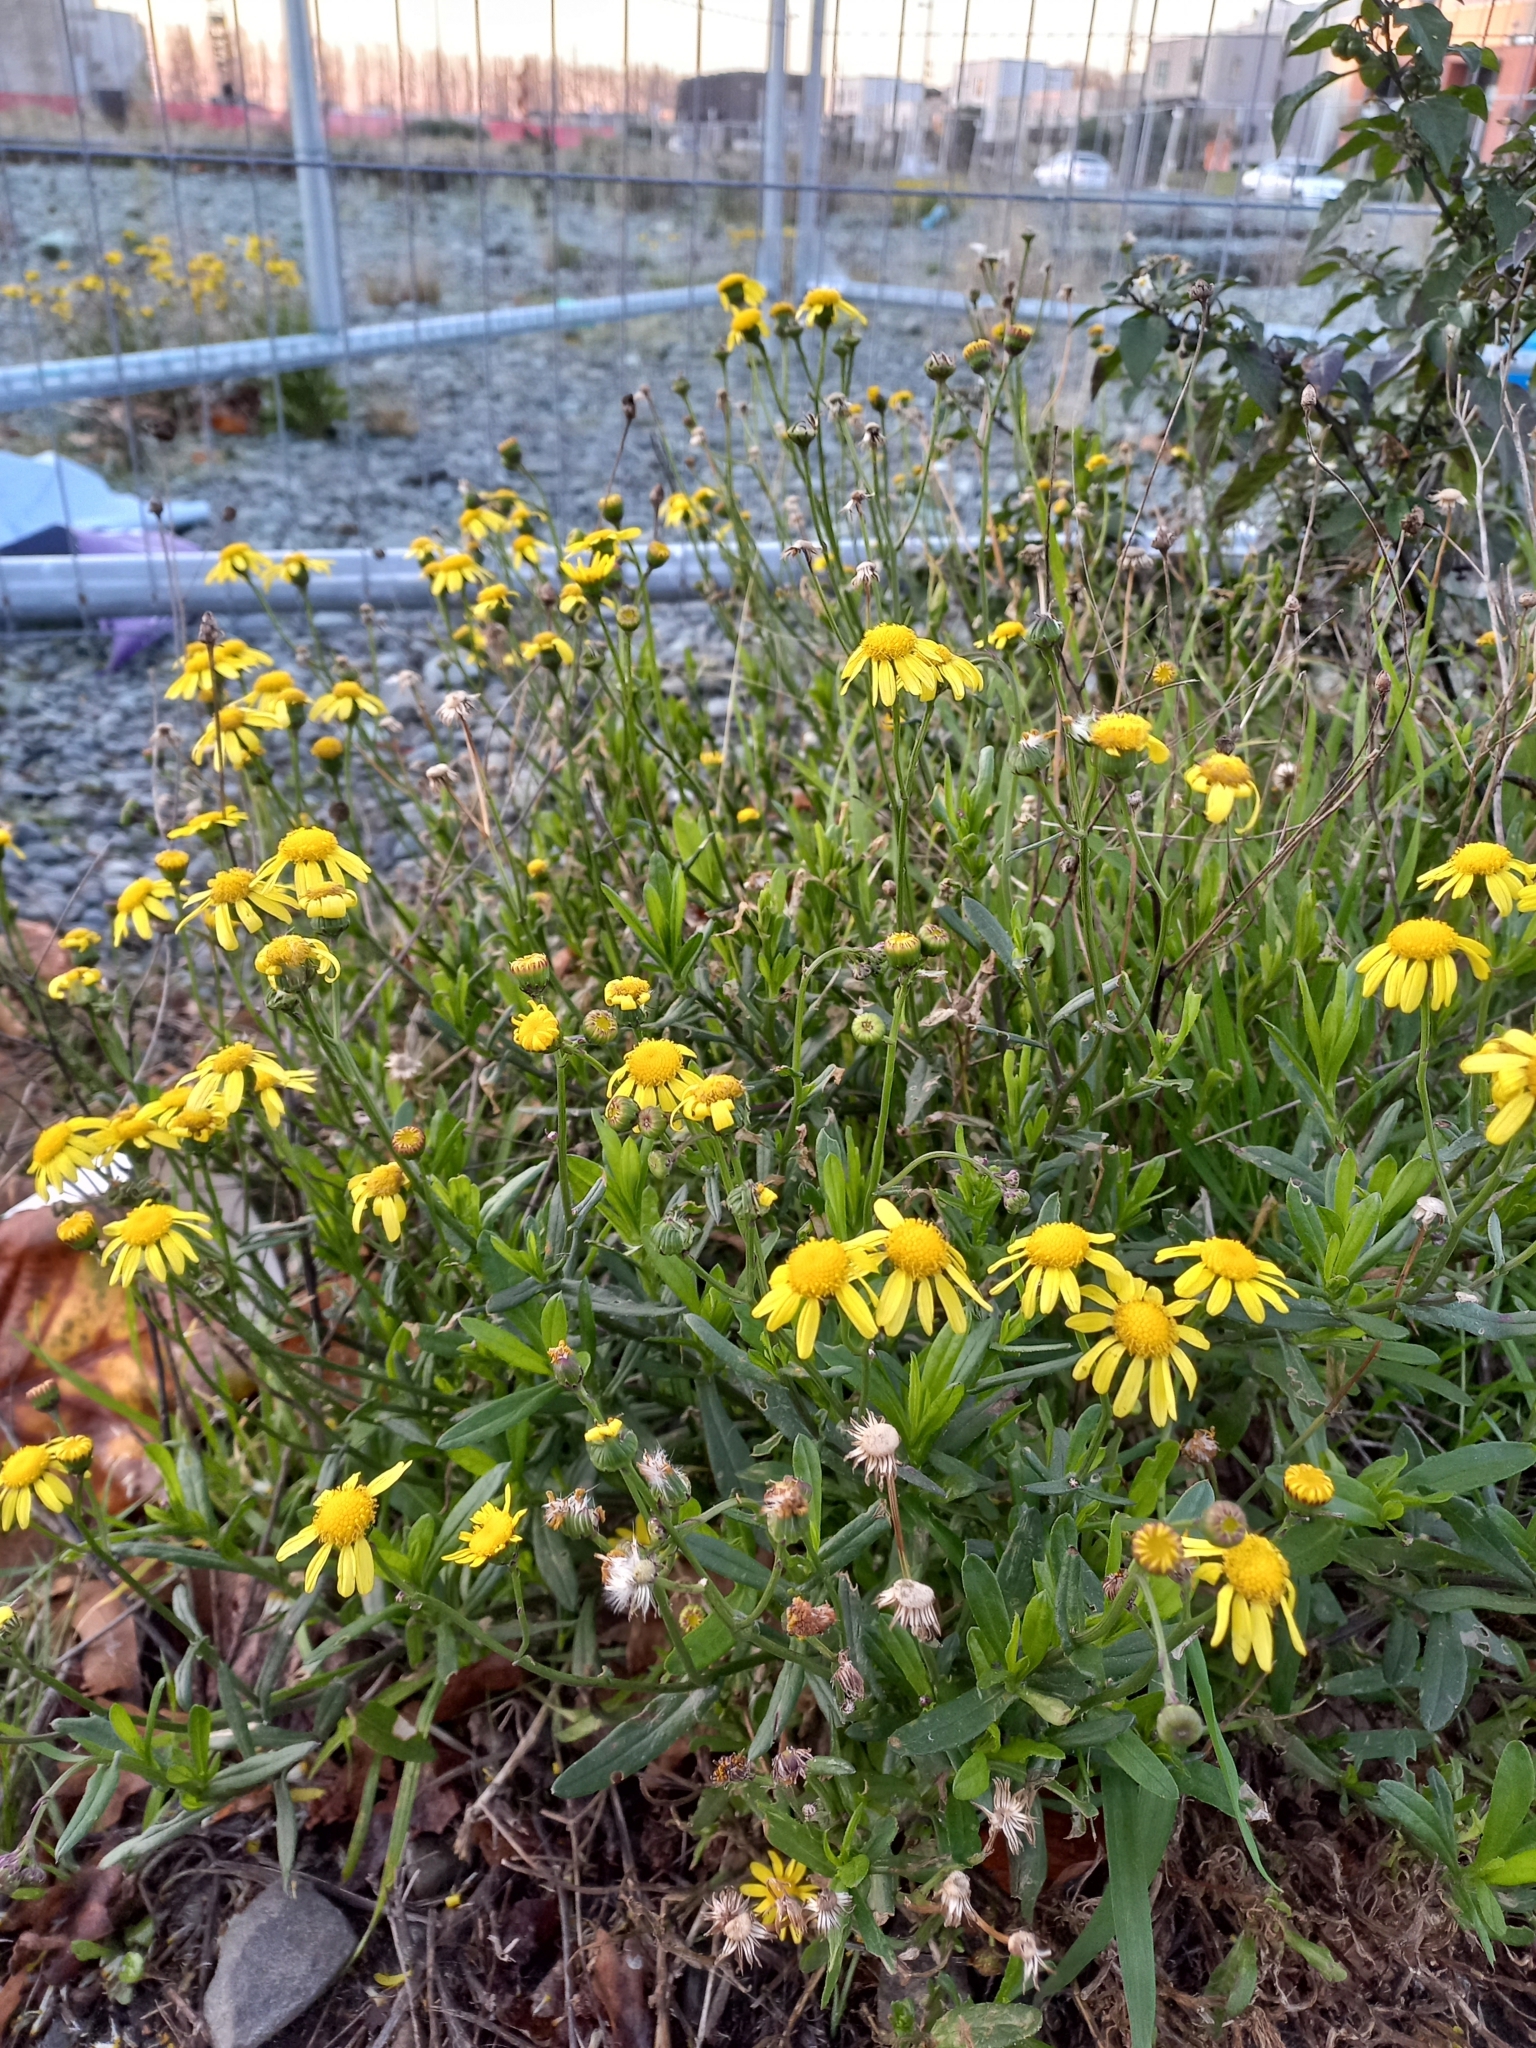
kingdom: Plantae
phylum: Tracheophyta
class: Magnoliopsida
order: Asterales
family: Asteraceae
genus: Senecio
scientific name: Senecio skirrhodon
